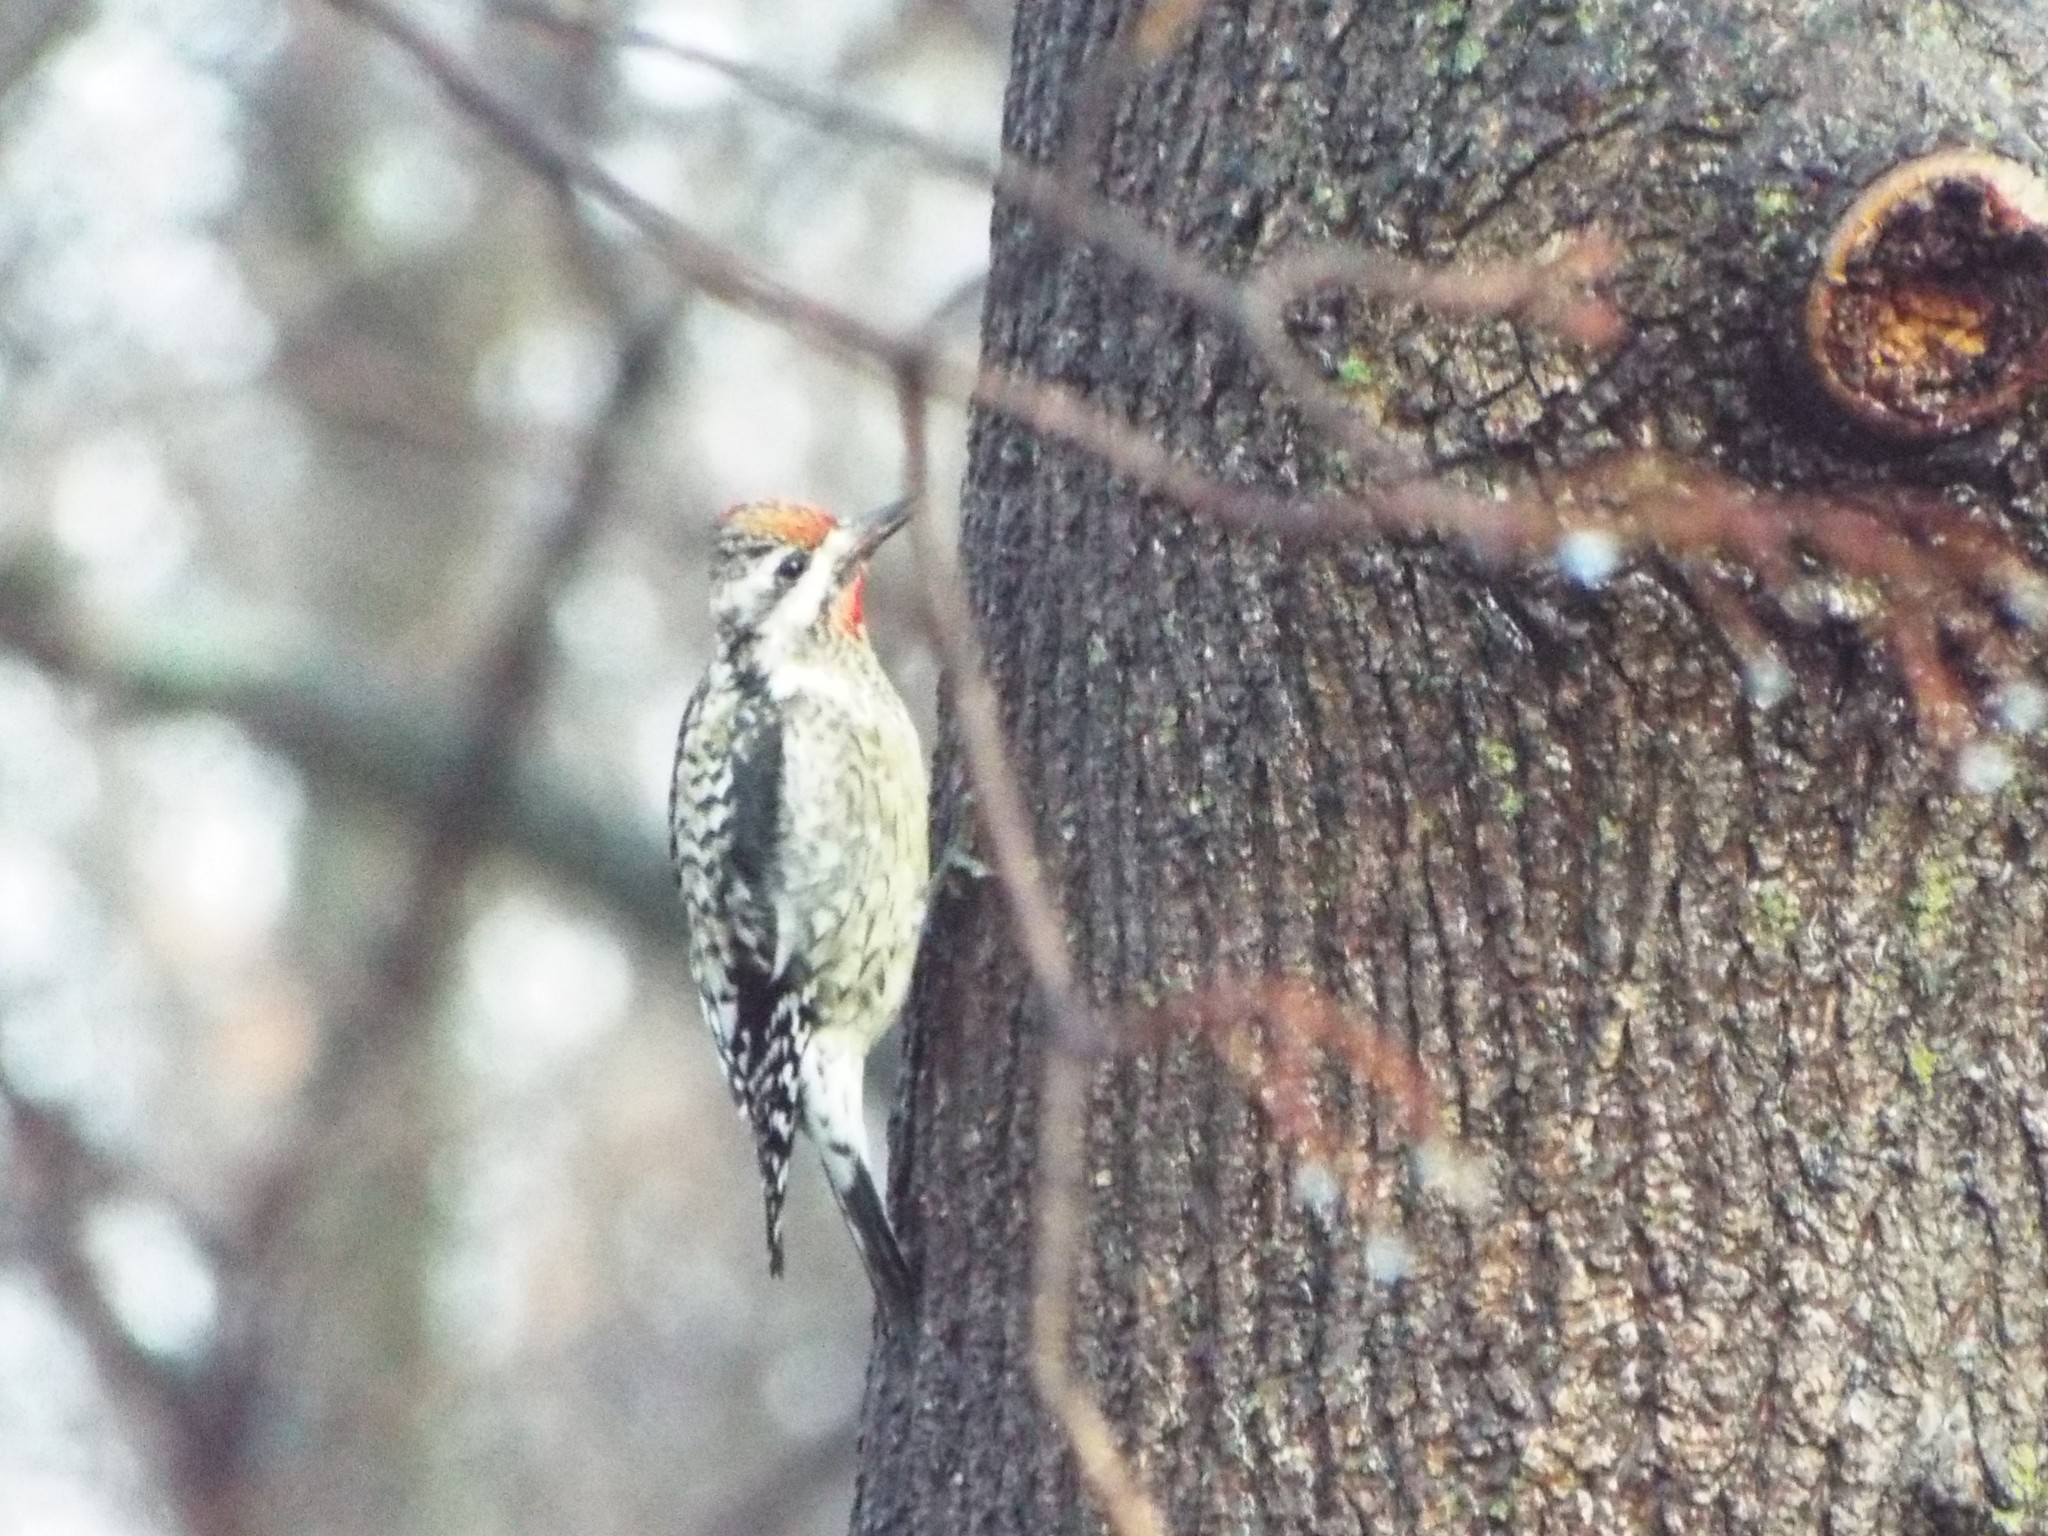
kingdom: Animalia
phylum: Chordata
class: Aves
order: Piciformes
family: Picidae
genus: Sphyrapicus
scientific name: Sphyrapicus varius
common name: Yellow-bellied sapsucker
